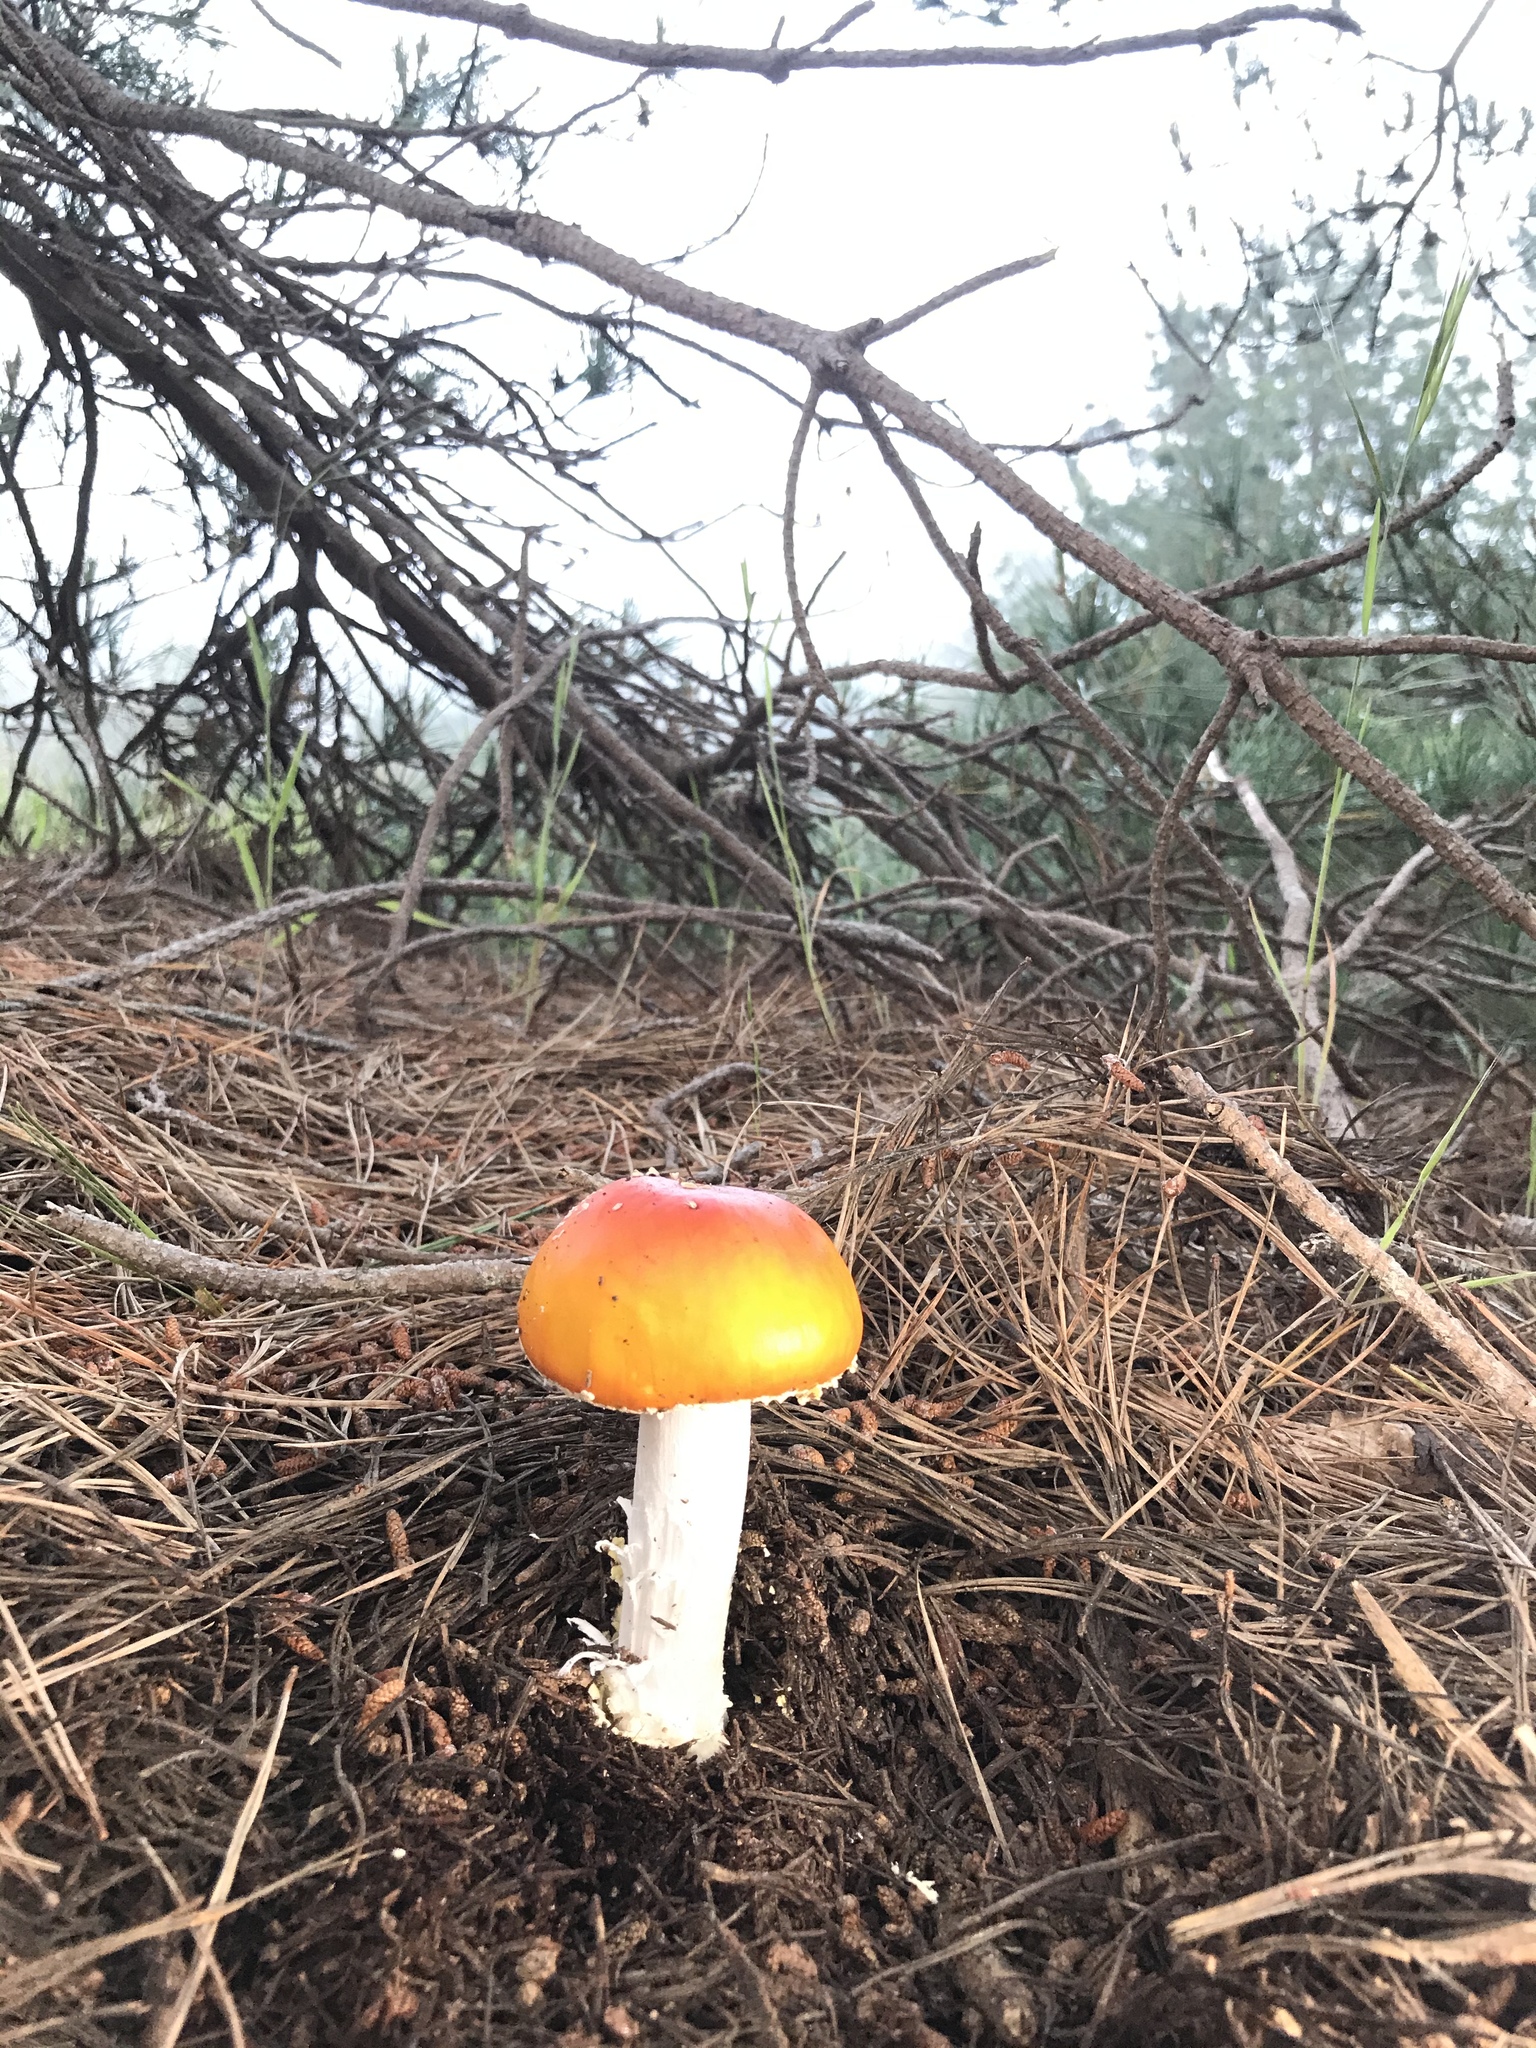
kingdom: Fungi
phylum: Basidiomycota
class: Agaricomycetes
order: Agaricales
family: Amanitaceae
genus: Amanita
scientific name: Amanita muscaria
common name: Fly agaric
